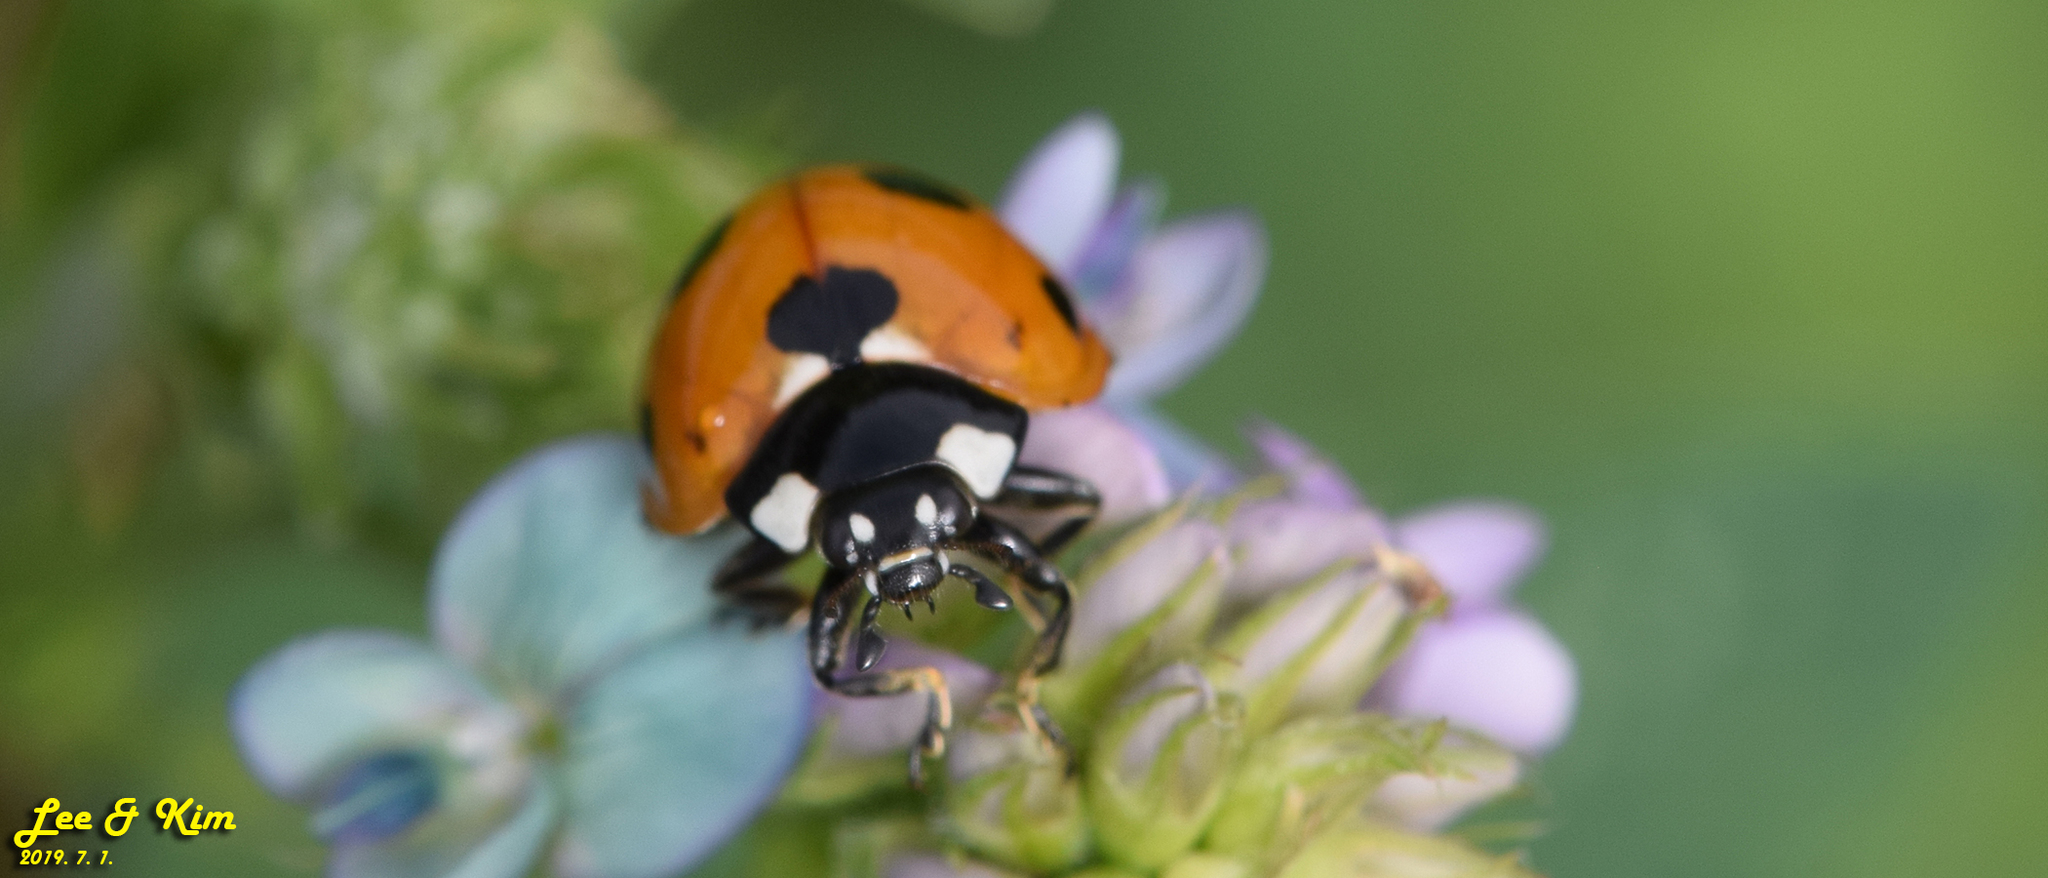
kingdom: Animalia
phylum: Arthropoda
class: Insecta
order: Coleoptera
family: Coccinellidae
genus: Coccinella
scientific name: Coccinella septempunctata
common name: Sevenspotted lady beetle
